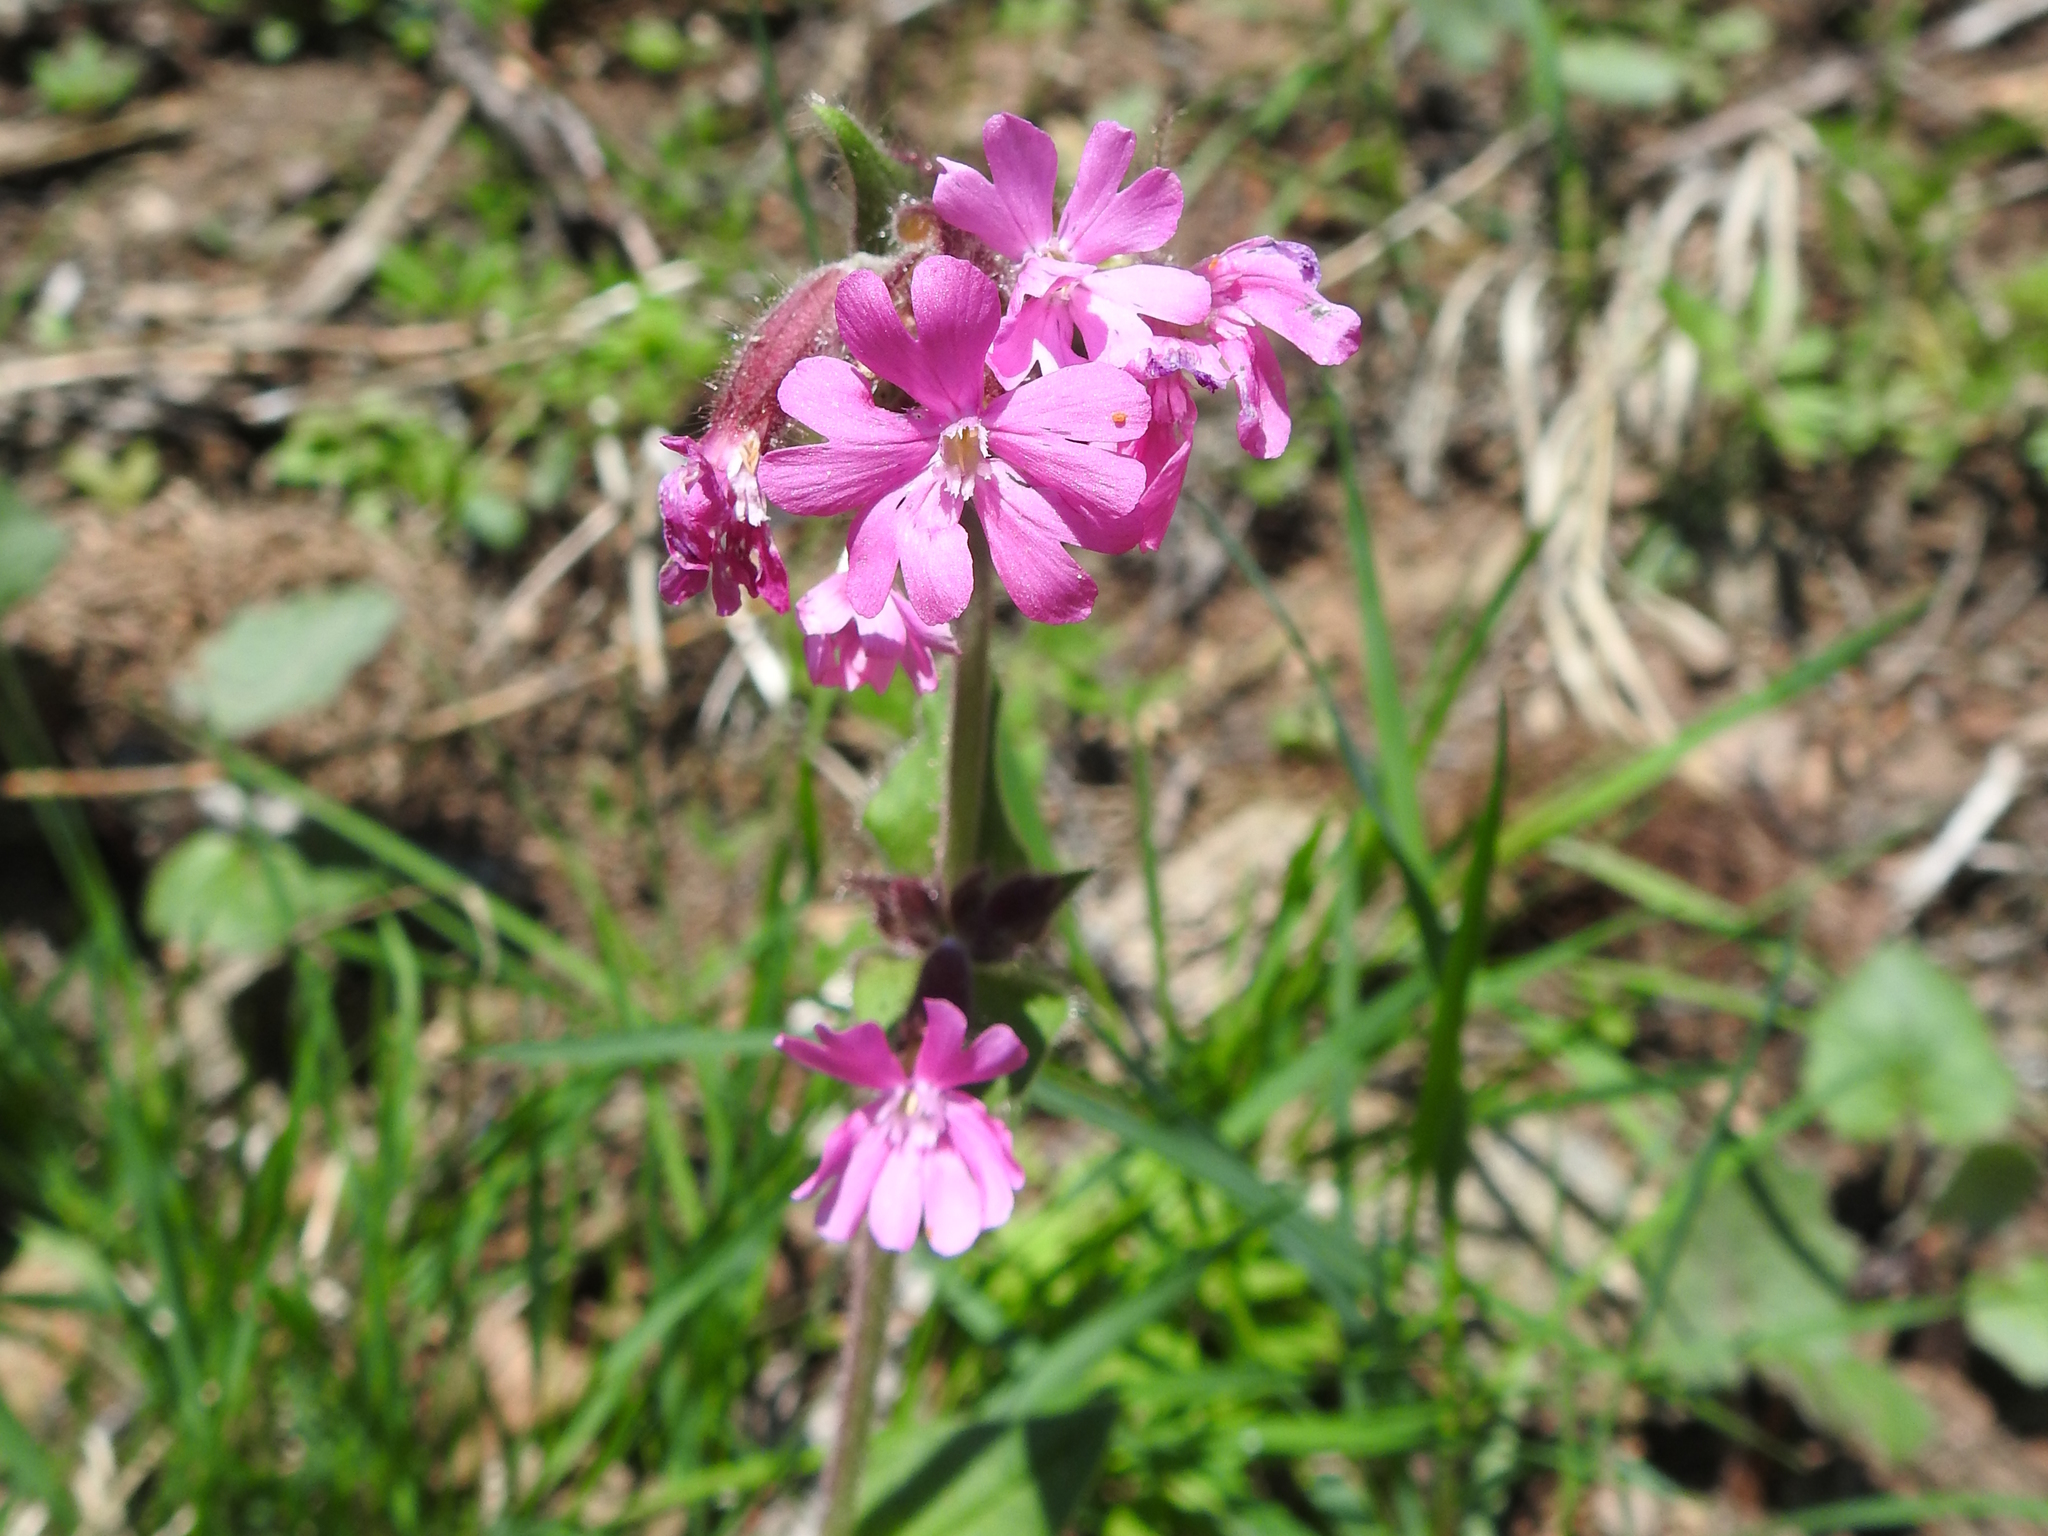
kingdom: Plantae
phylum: Tracheophyta
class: Magnoliopsida
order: Caryophyllales
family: Caryophyllaceae
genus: Silene
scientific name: Silene dioica
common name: Red campion
